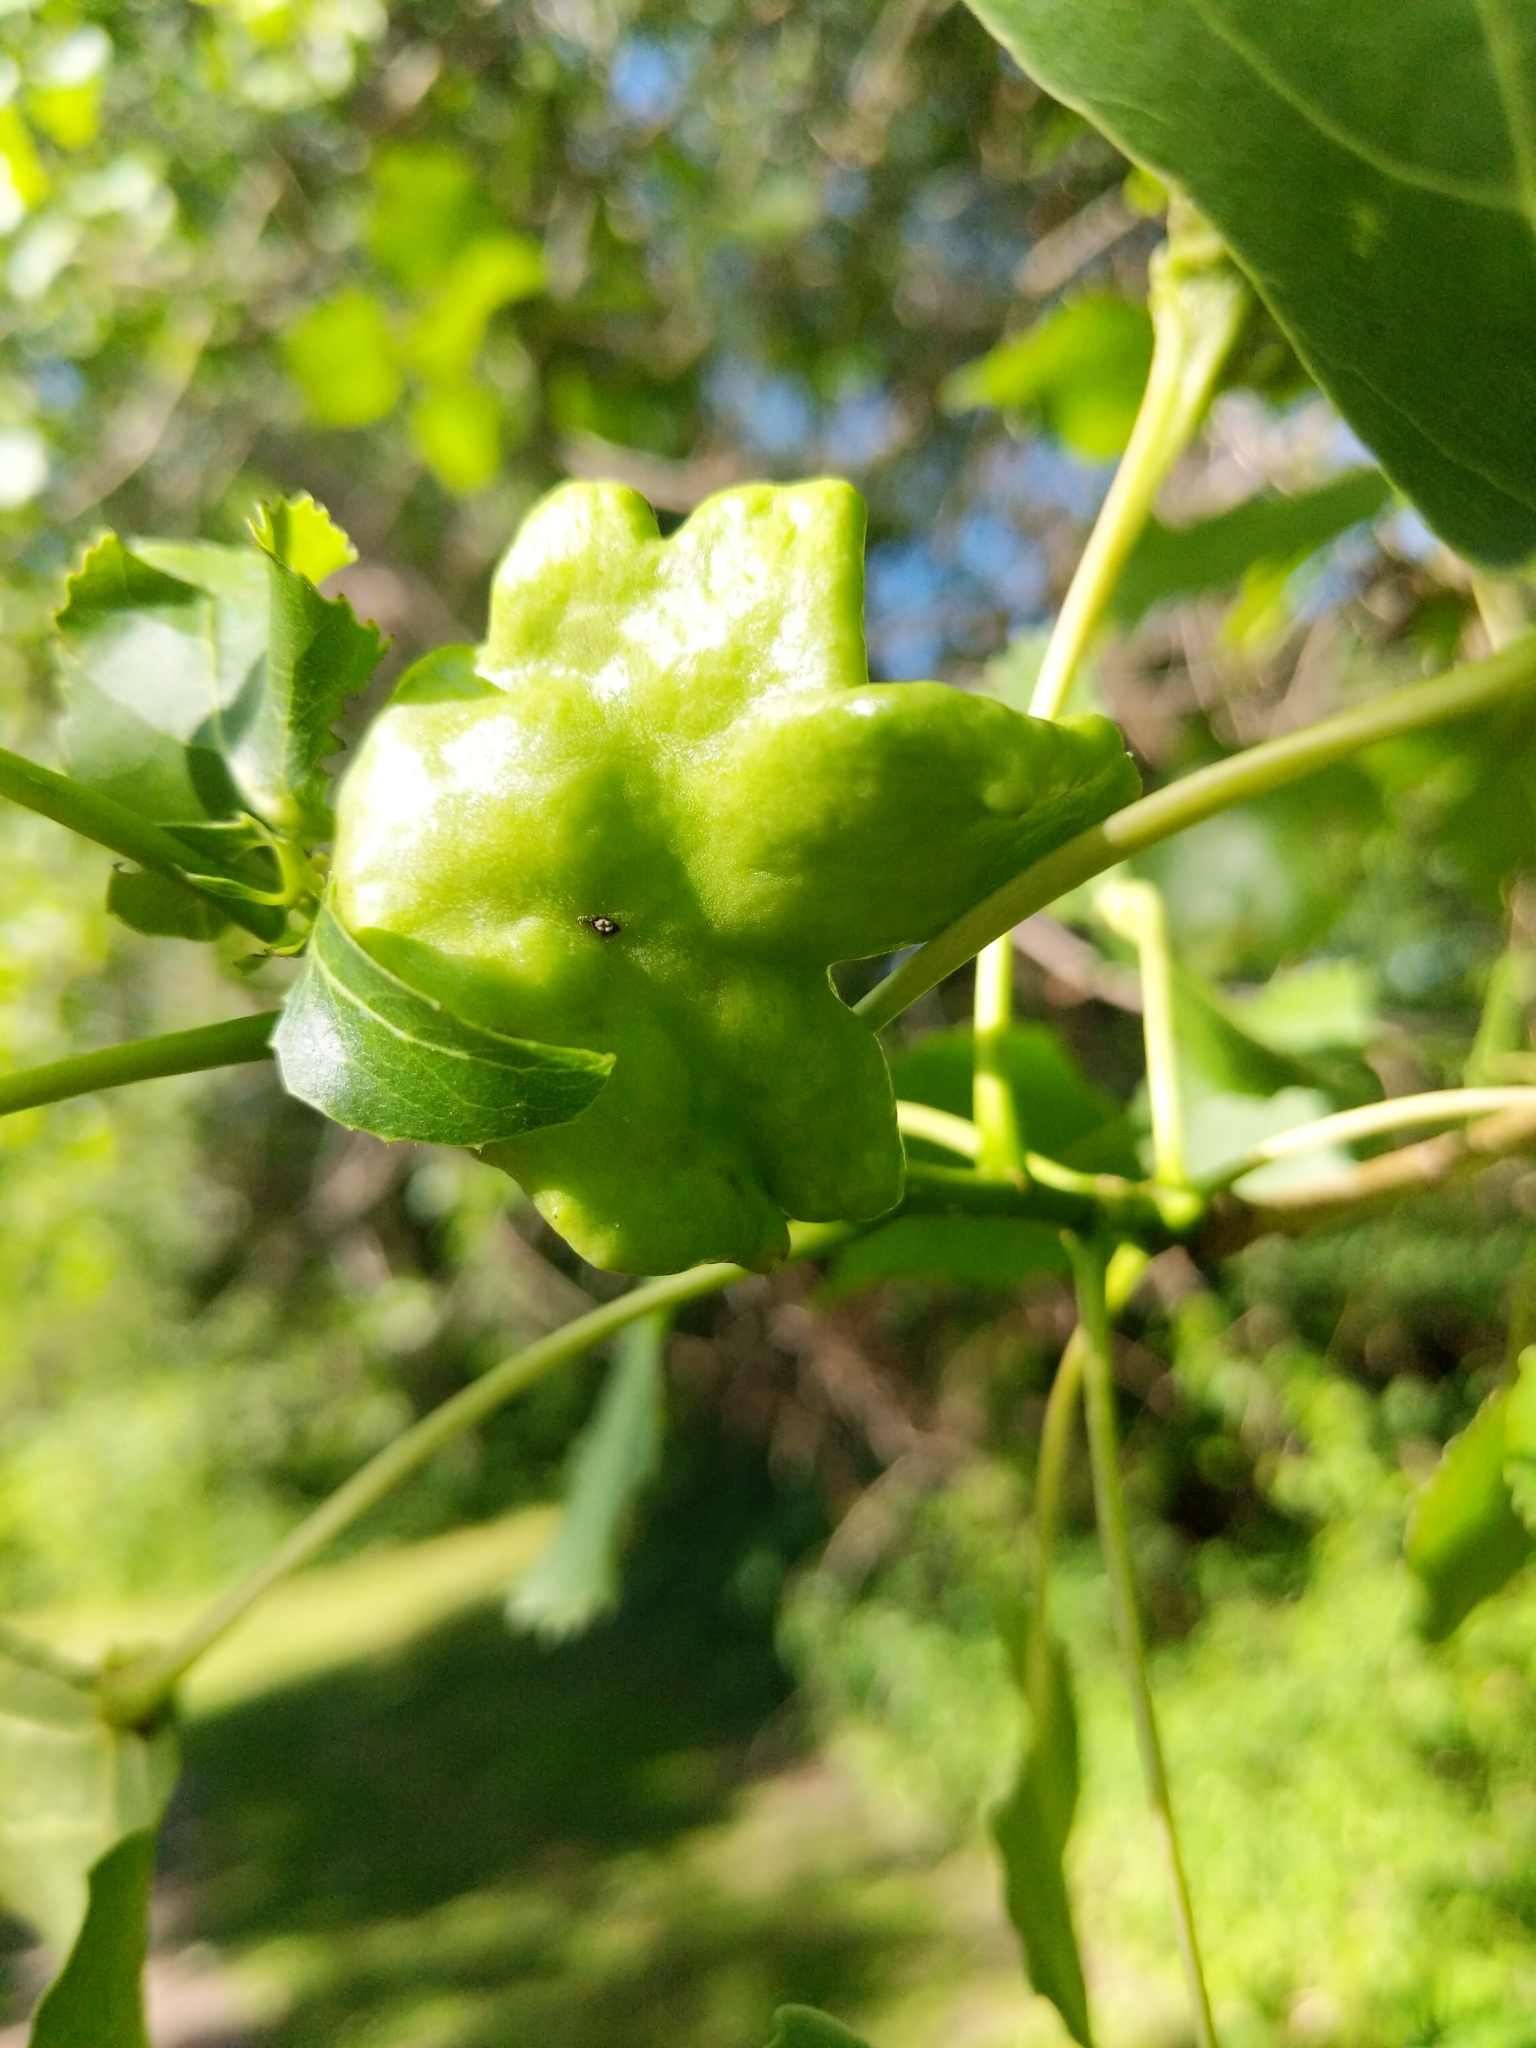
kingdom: Animalia
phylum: Arthropoda
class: Insecta
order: Hemiptera
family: Aphididae
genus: Mordwilkoja
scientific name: Mordwilkoja vagabunda
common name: Poplar vagabond aphid
